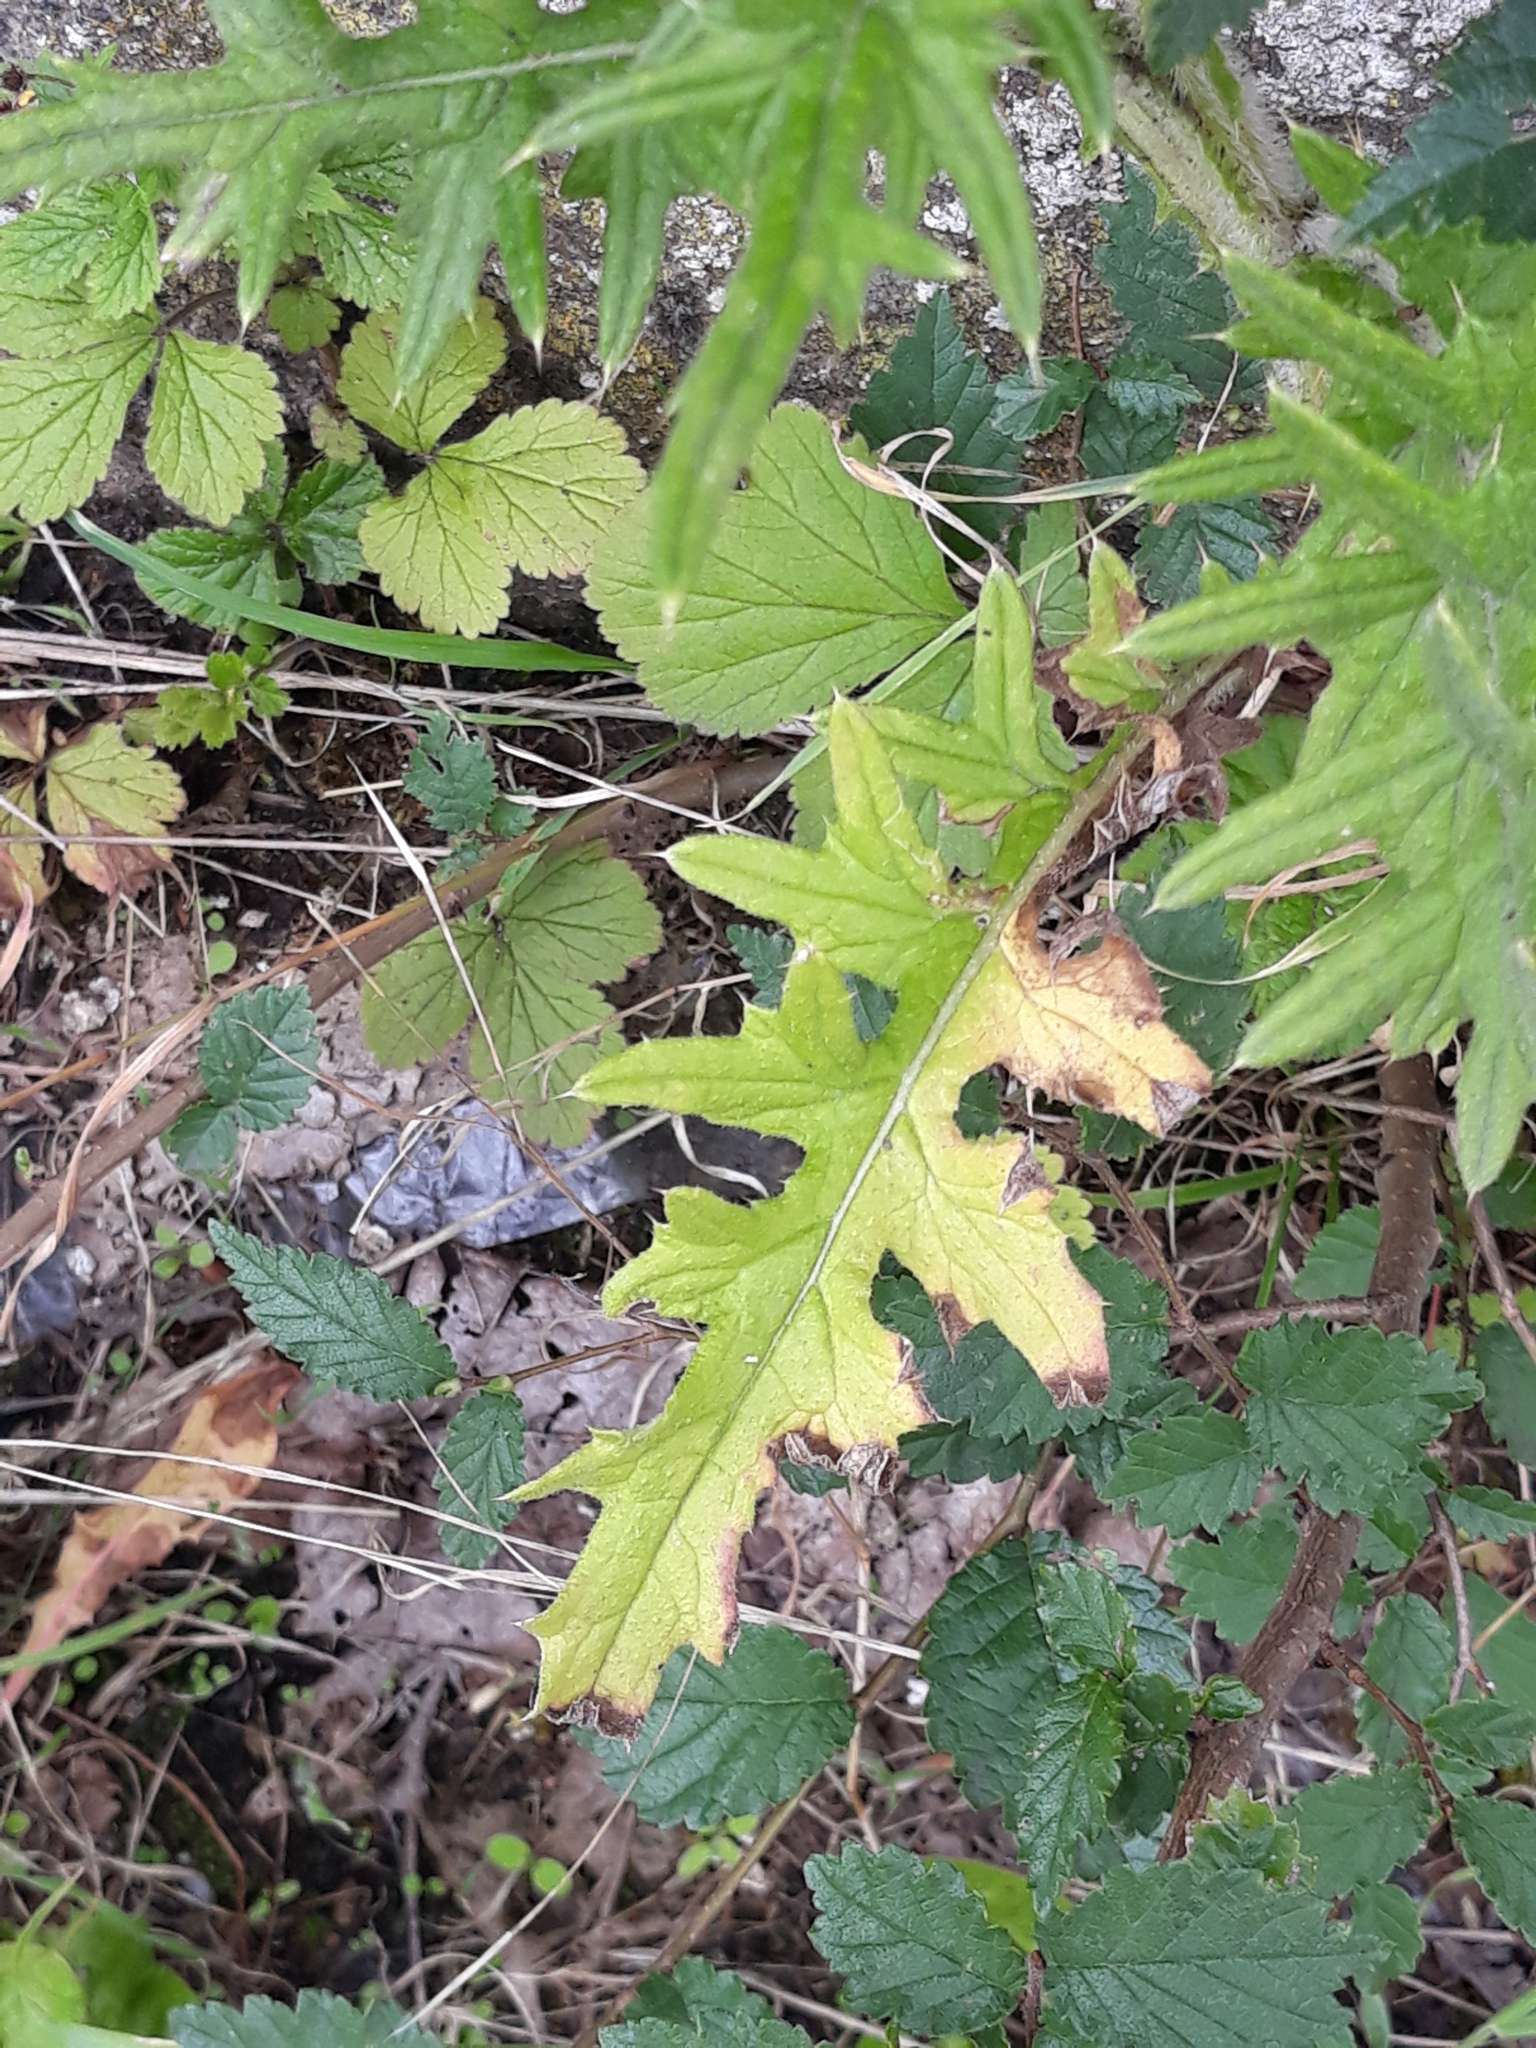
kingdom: Plantae
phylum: Tracheophyta
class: Magnoliopsida
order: Asterales
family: Asteraceae
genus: Cirsium
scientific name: Cirsium vulgare
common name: Bull thistle
